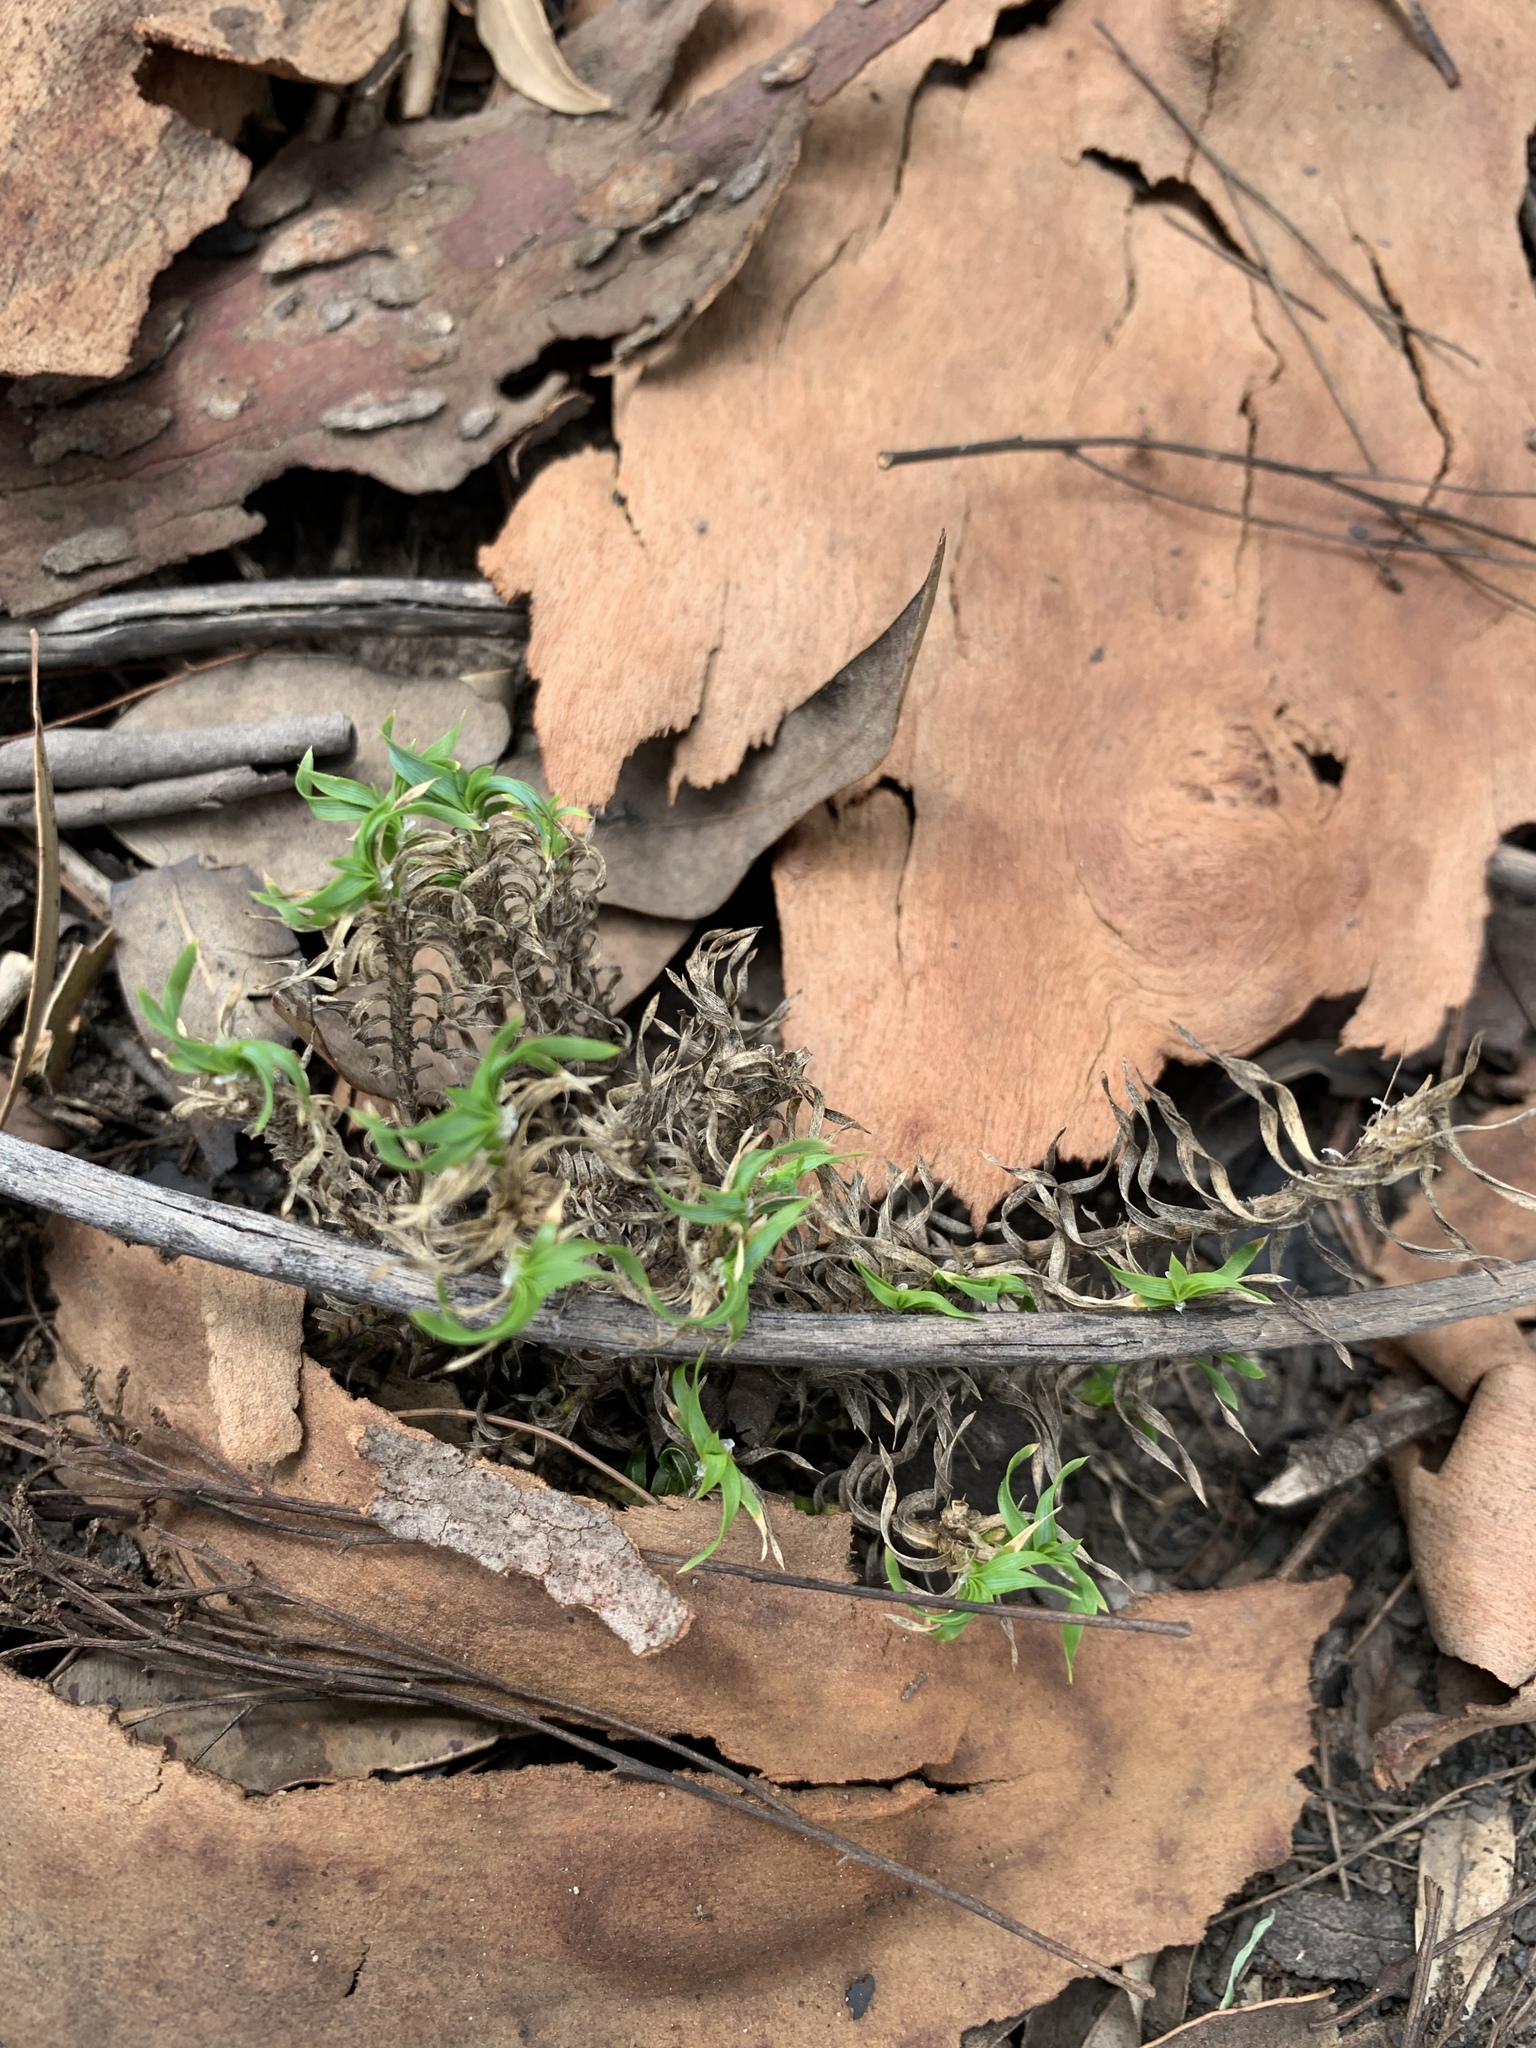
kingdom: Plantae
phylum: Tracheophyta
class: Liliopsida
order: Asparagales
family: Asparagaceae
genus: Lomandra
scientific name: Lomandra obliqua
